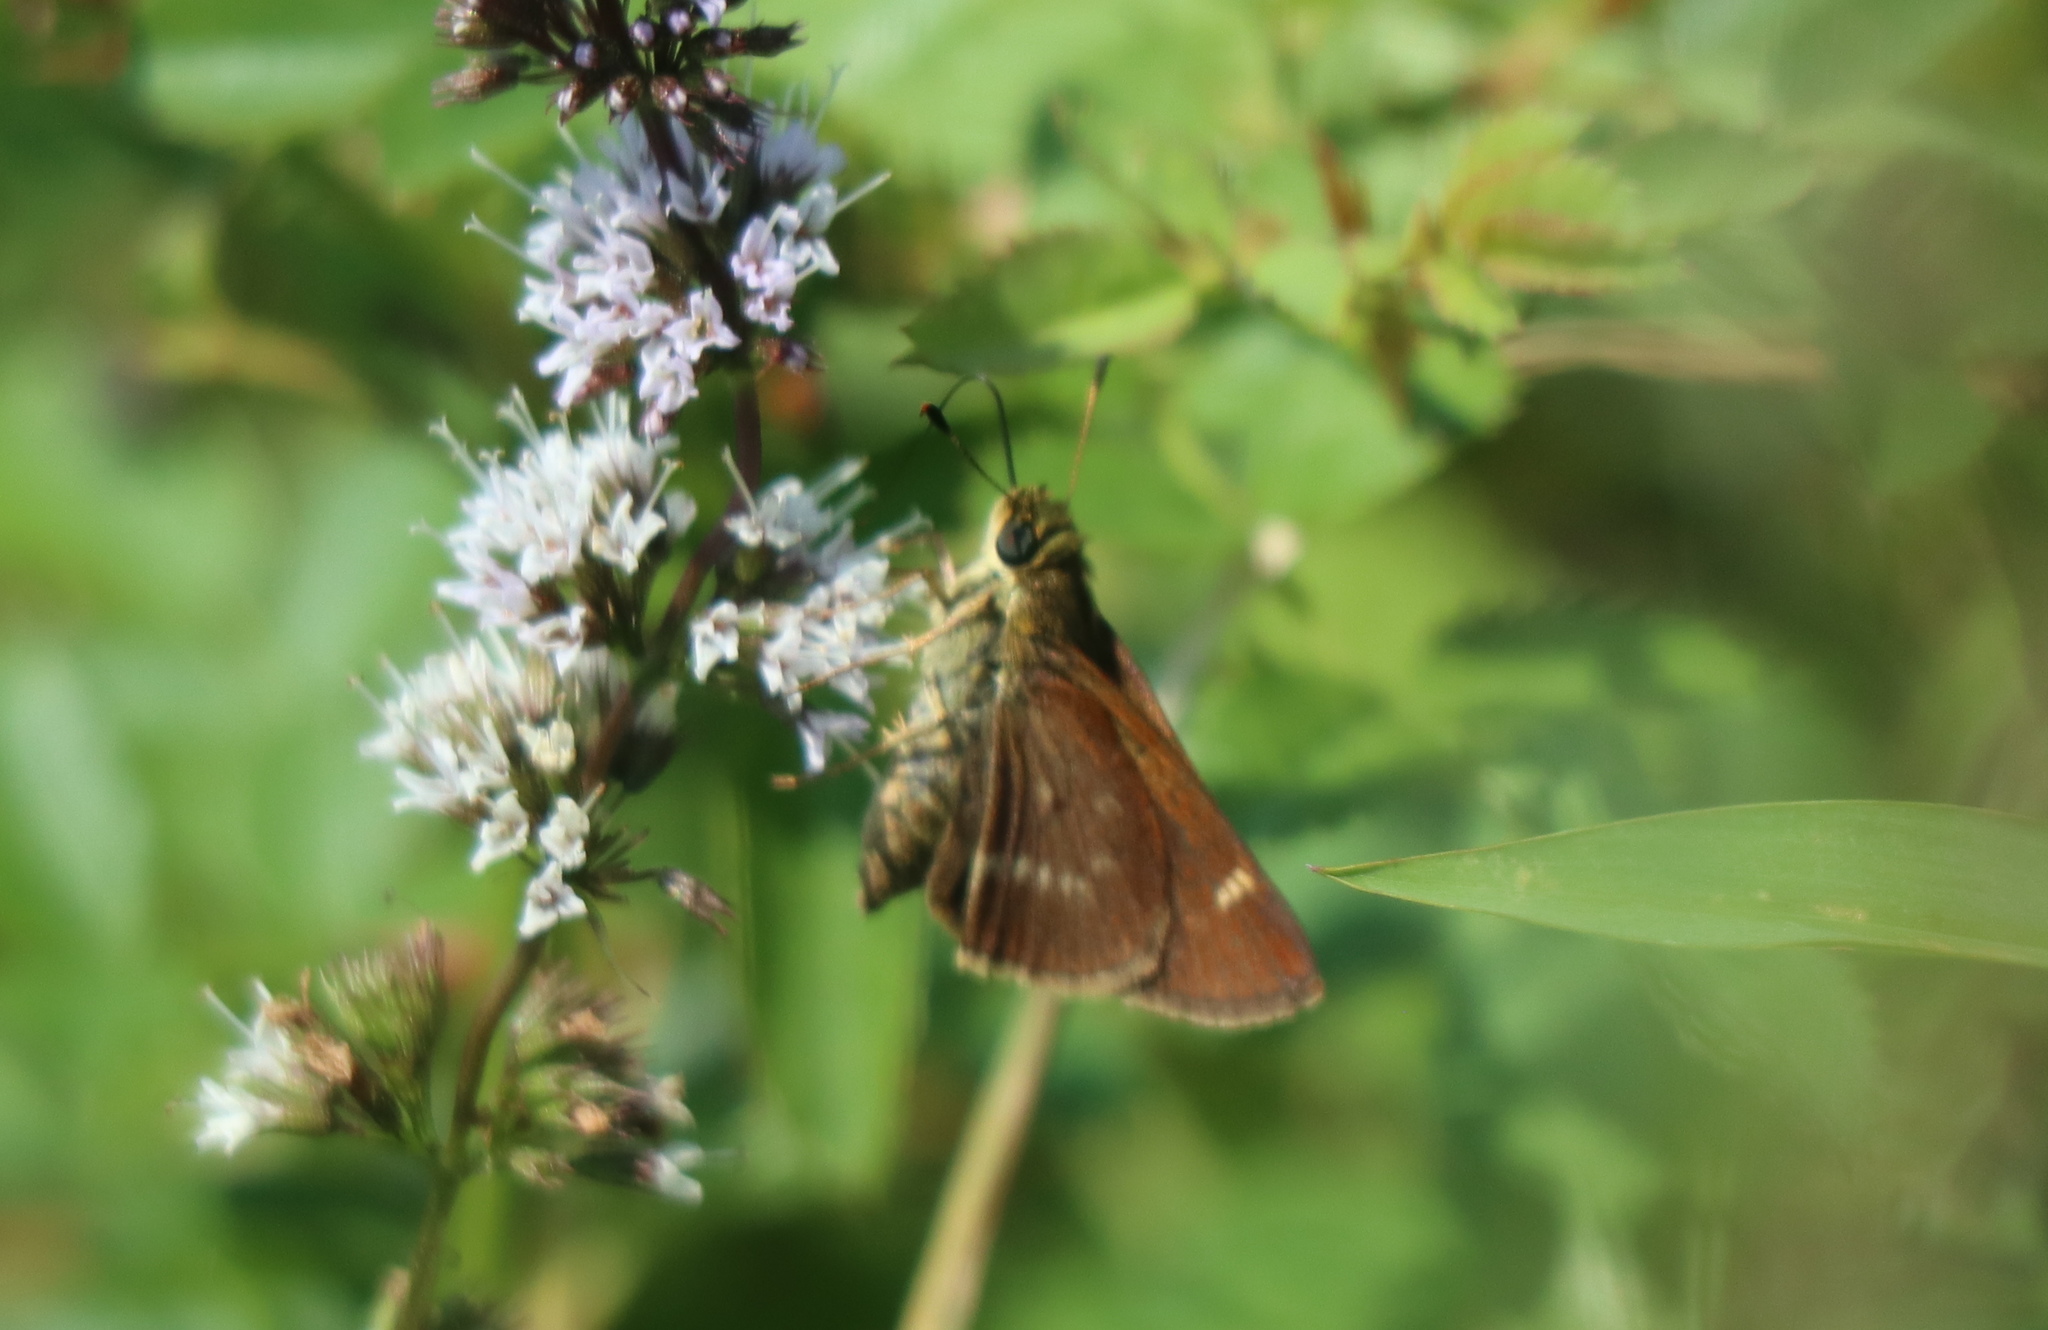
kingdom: Animalia
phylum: Arthropoda
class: Insecta
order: Lepidoptera
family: Hesperiidae
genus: Vernia
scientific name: Vernia verna
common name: Little glassywing
